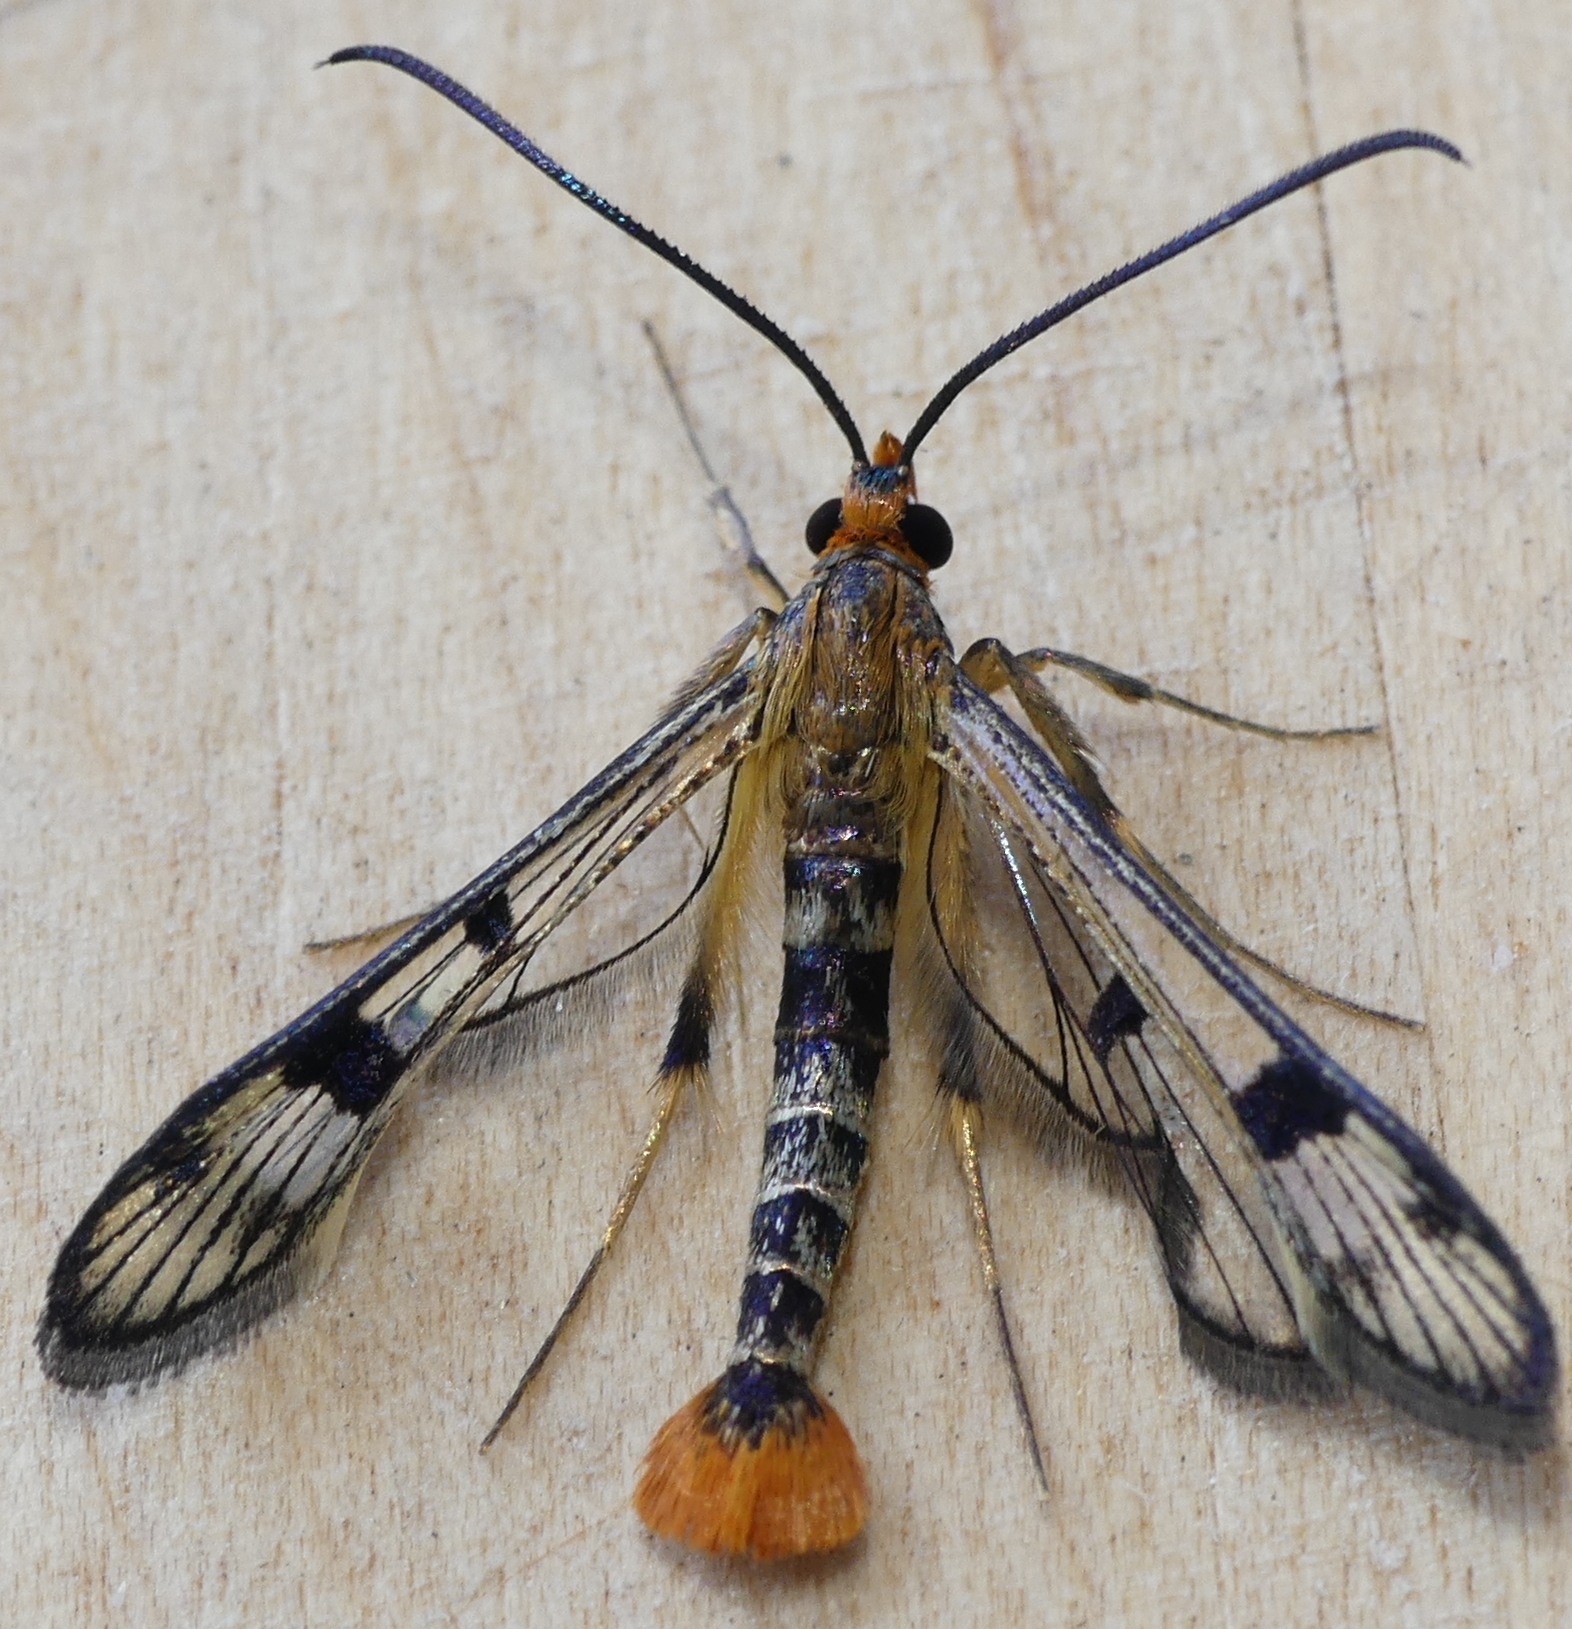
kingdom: Animalia
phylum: Arthropoda
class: Insecta
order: Lepidoptera
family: Sesiidae
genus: Synanthedon
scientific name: Synanthedon acerni
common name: Maple callus borer moth
